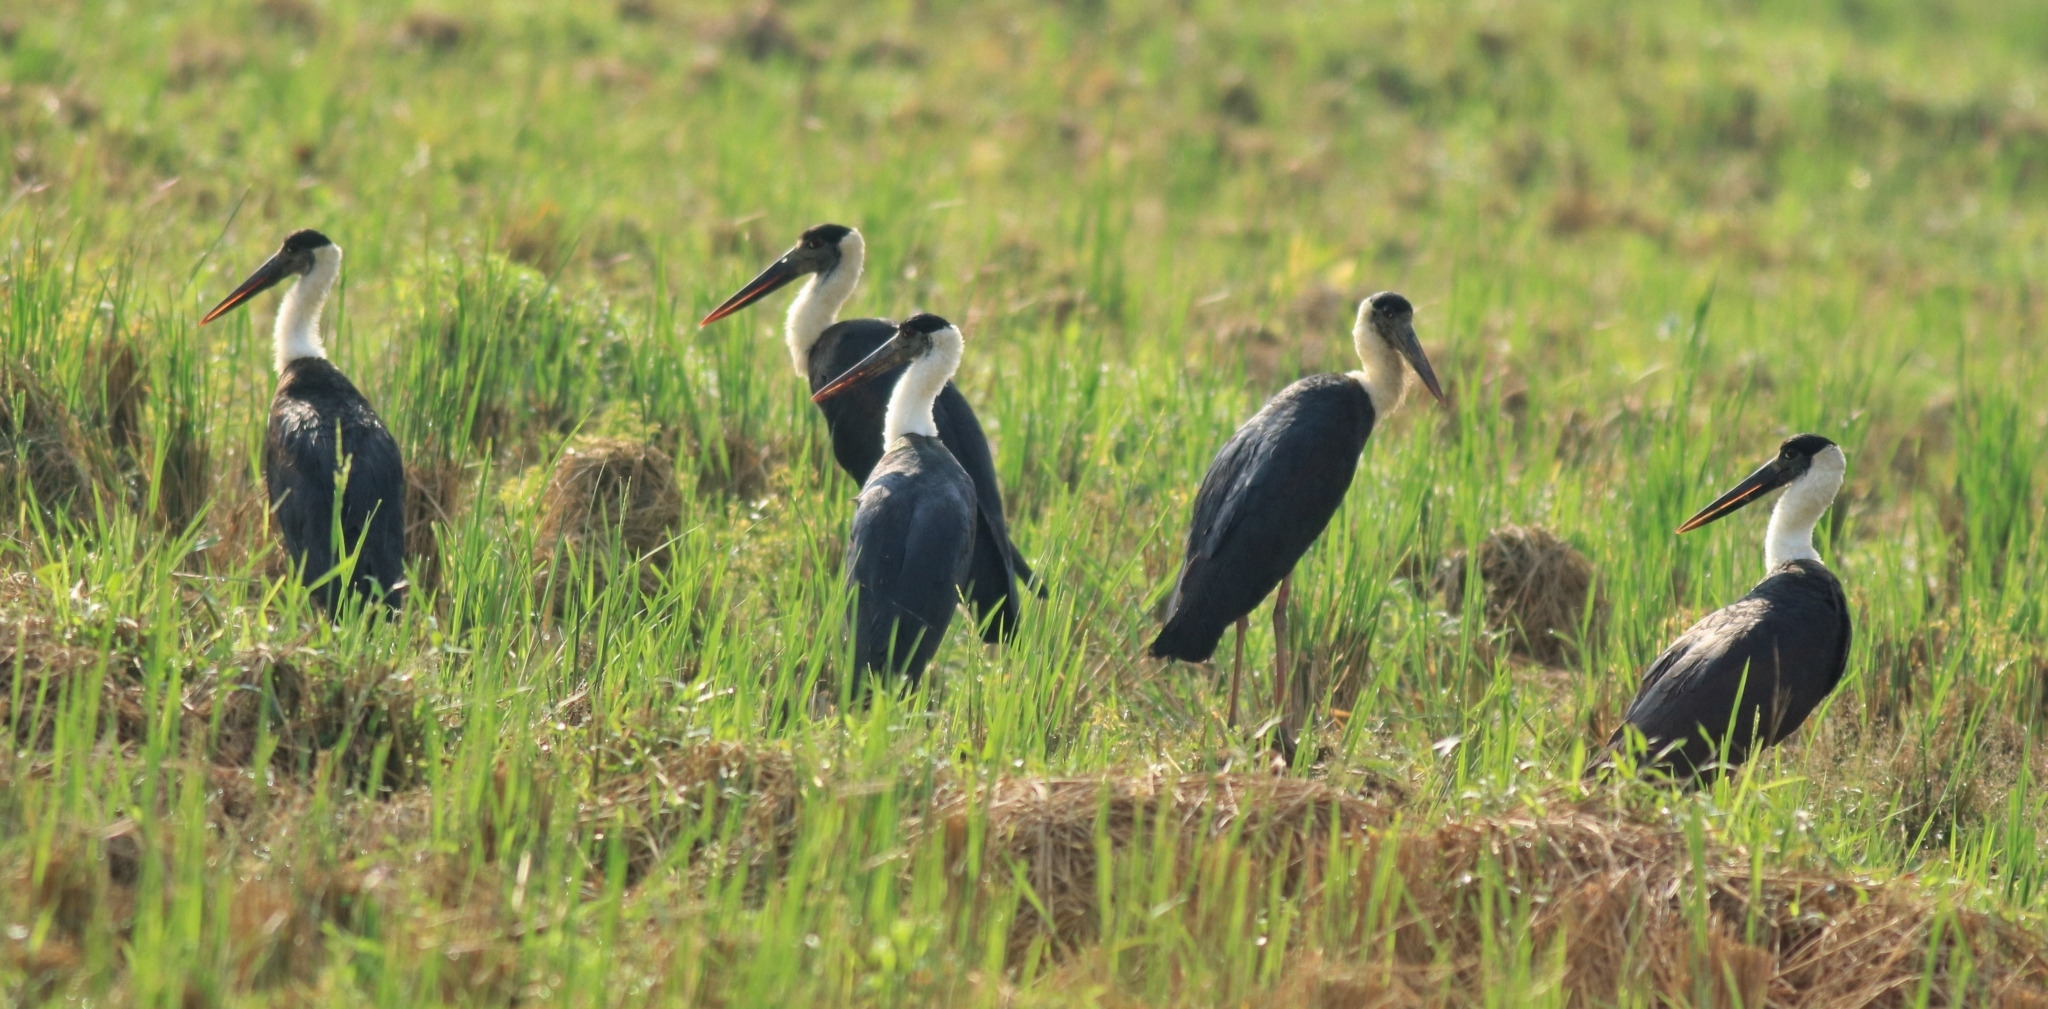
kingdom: Animalia
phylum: Chordata
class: Aves
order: Ciconiiformes
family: Ciconiidae
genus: Ciconia
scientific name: Ciconia episcopus
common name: Woolly-necked stork
